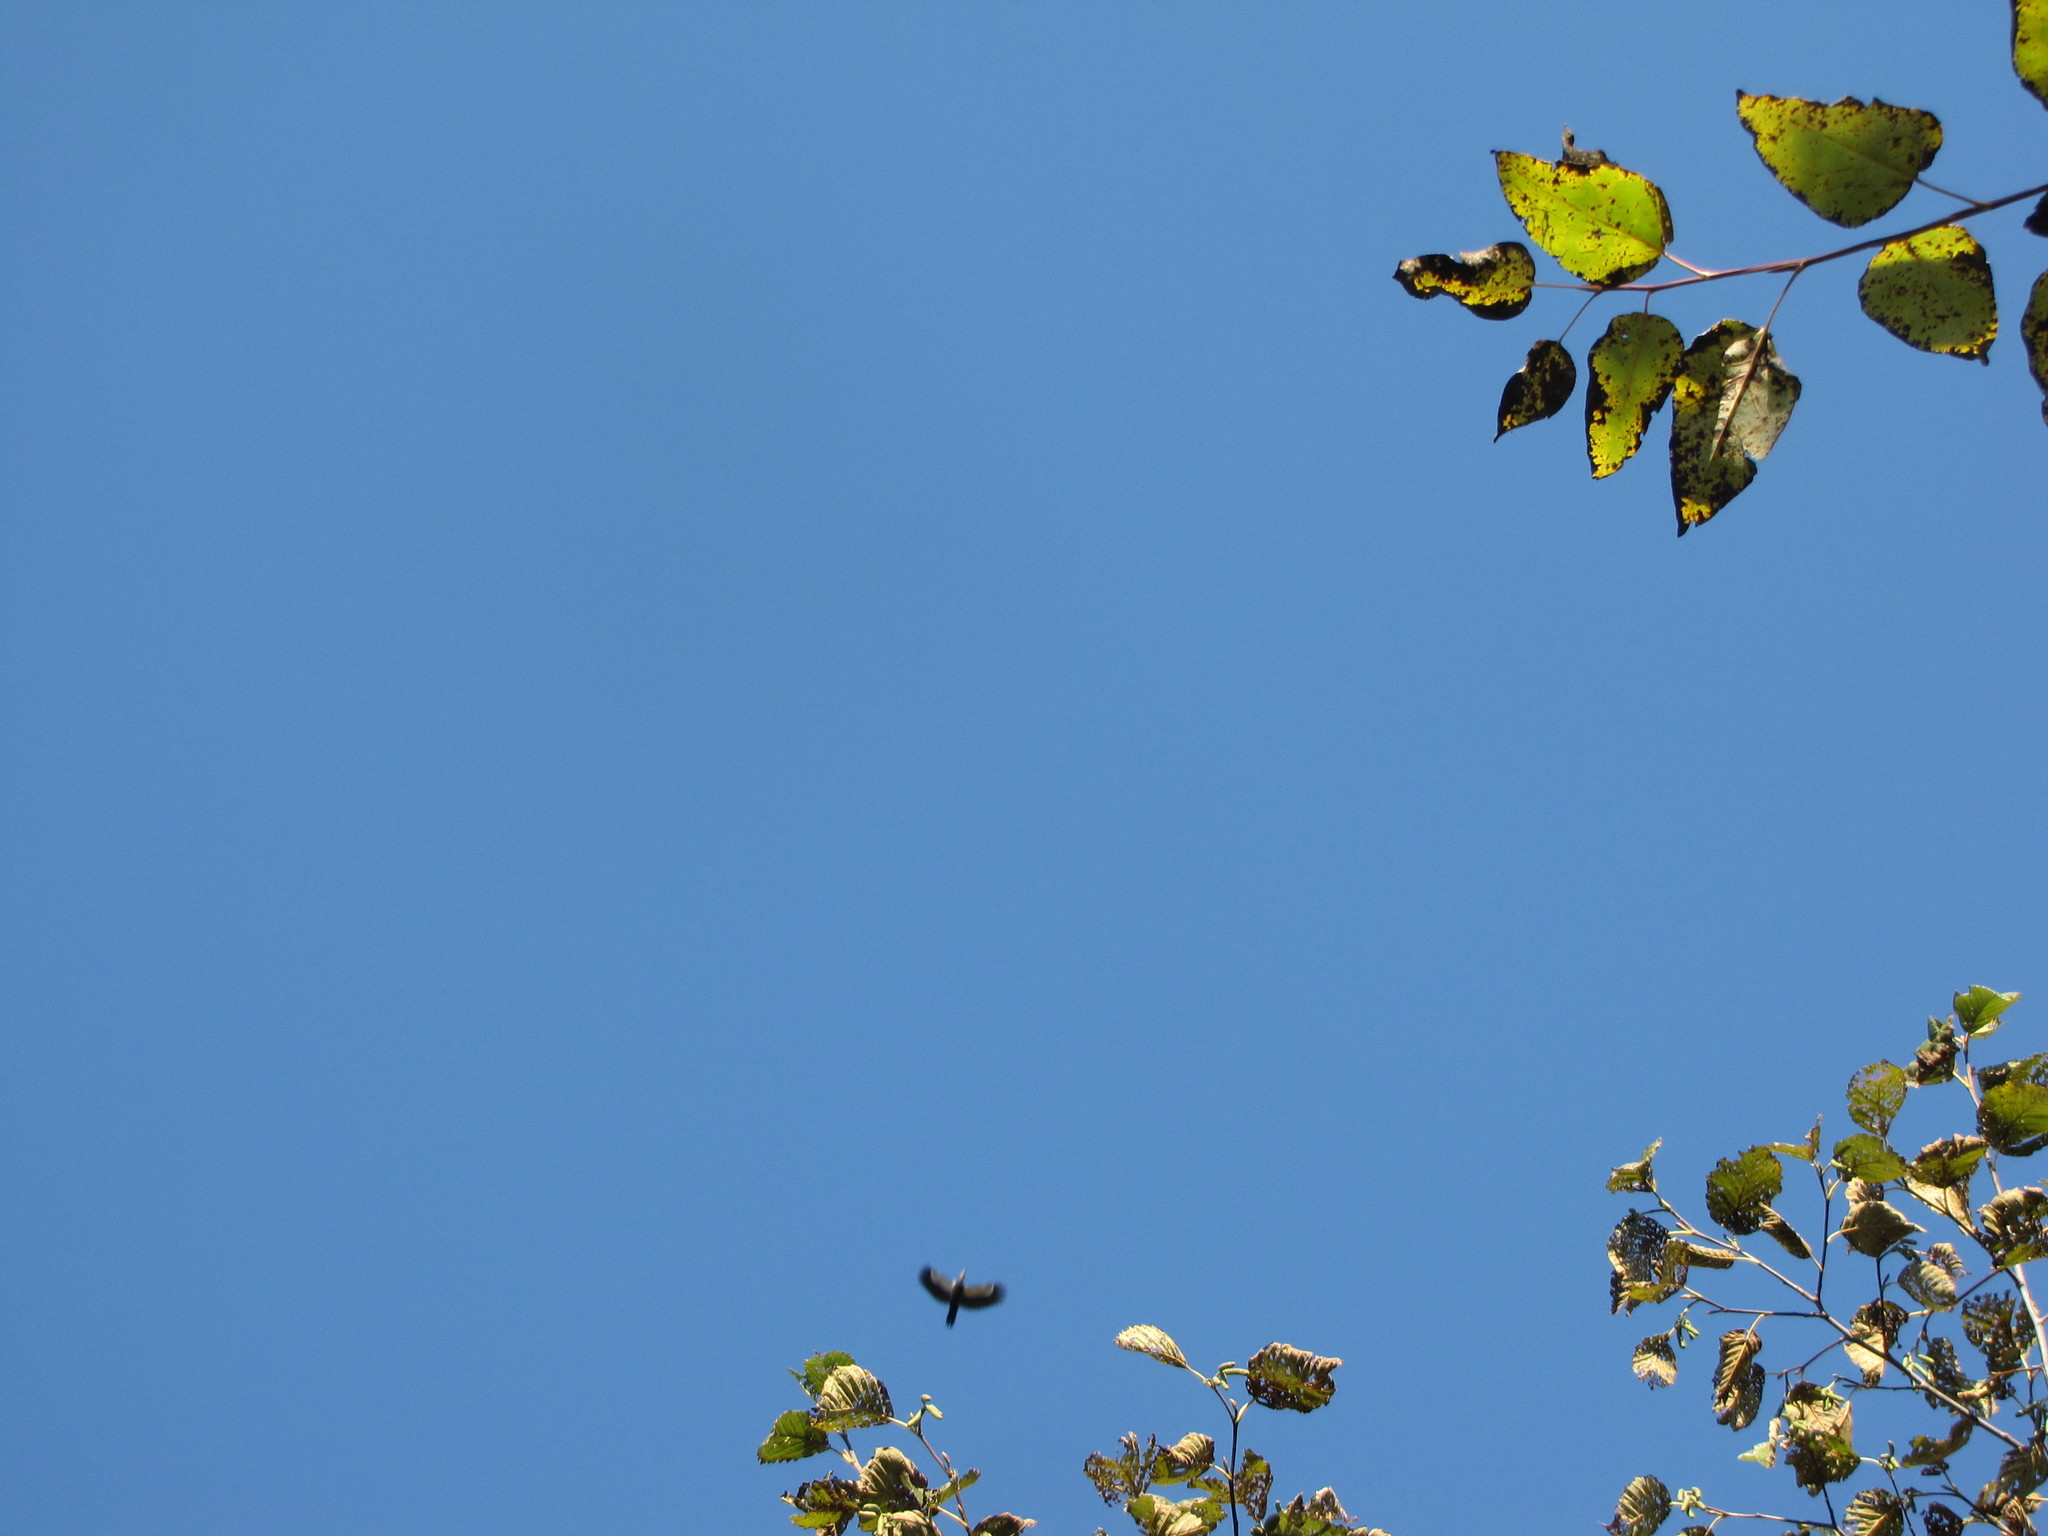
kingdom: Animalia
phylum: Chordata
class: Aves
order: Piciformes
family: Picidae
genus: Dryocopus
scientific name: Dryocopus pileatus
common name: Pileated woodpecker
